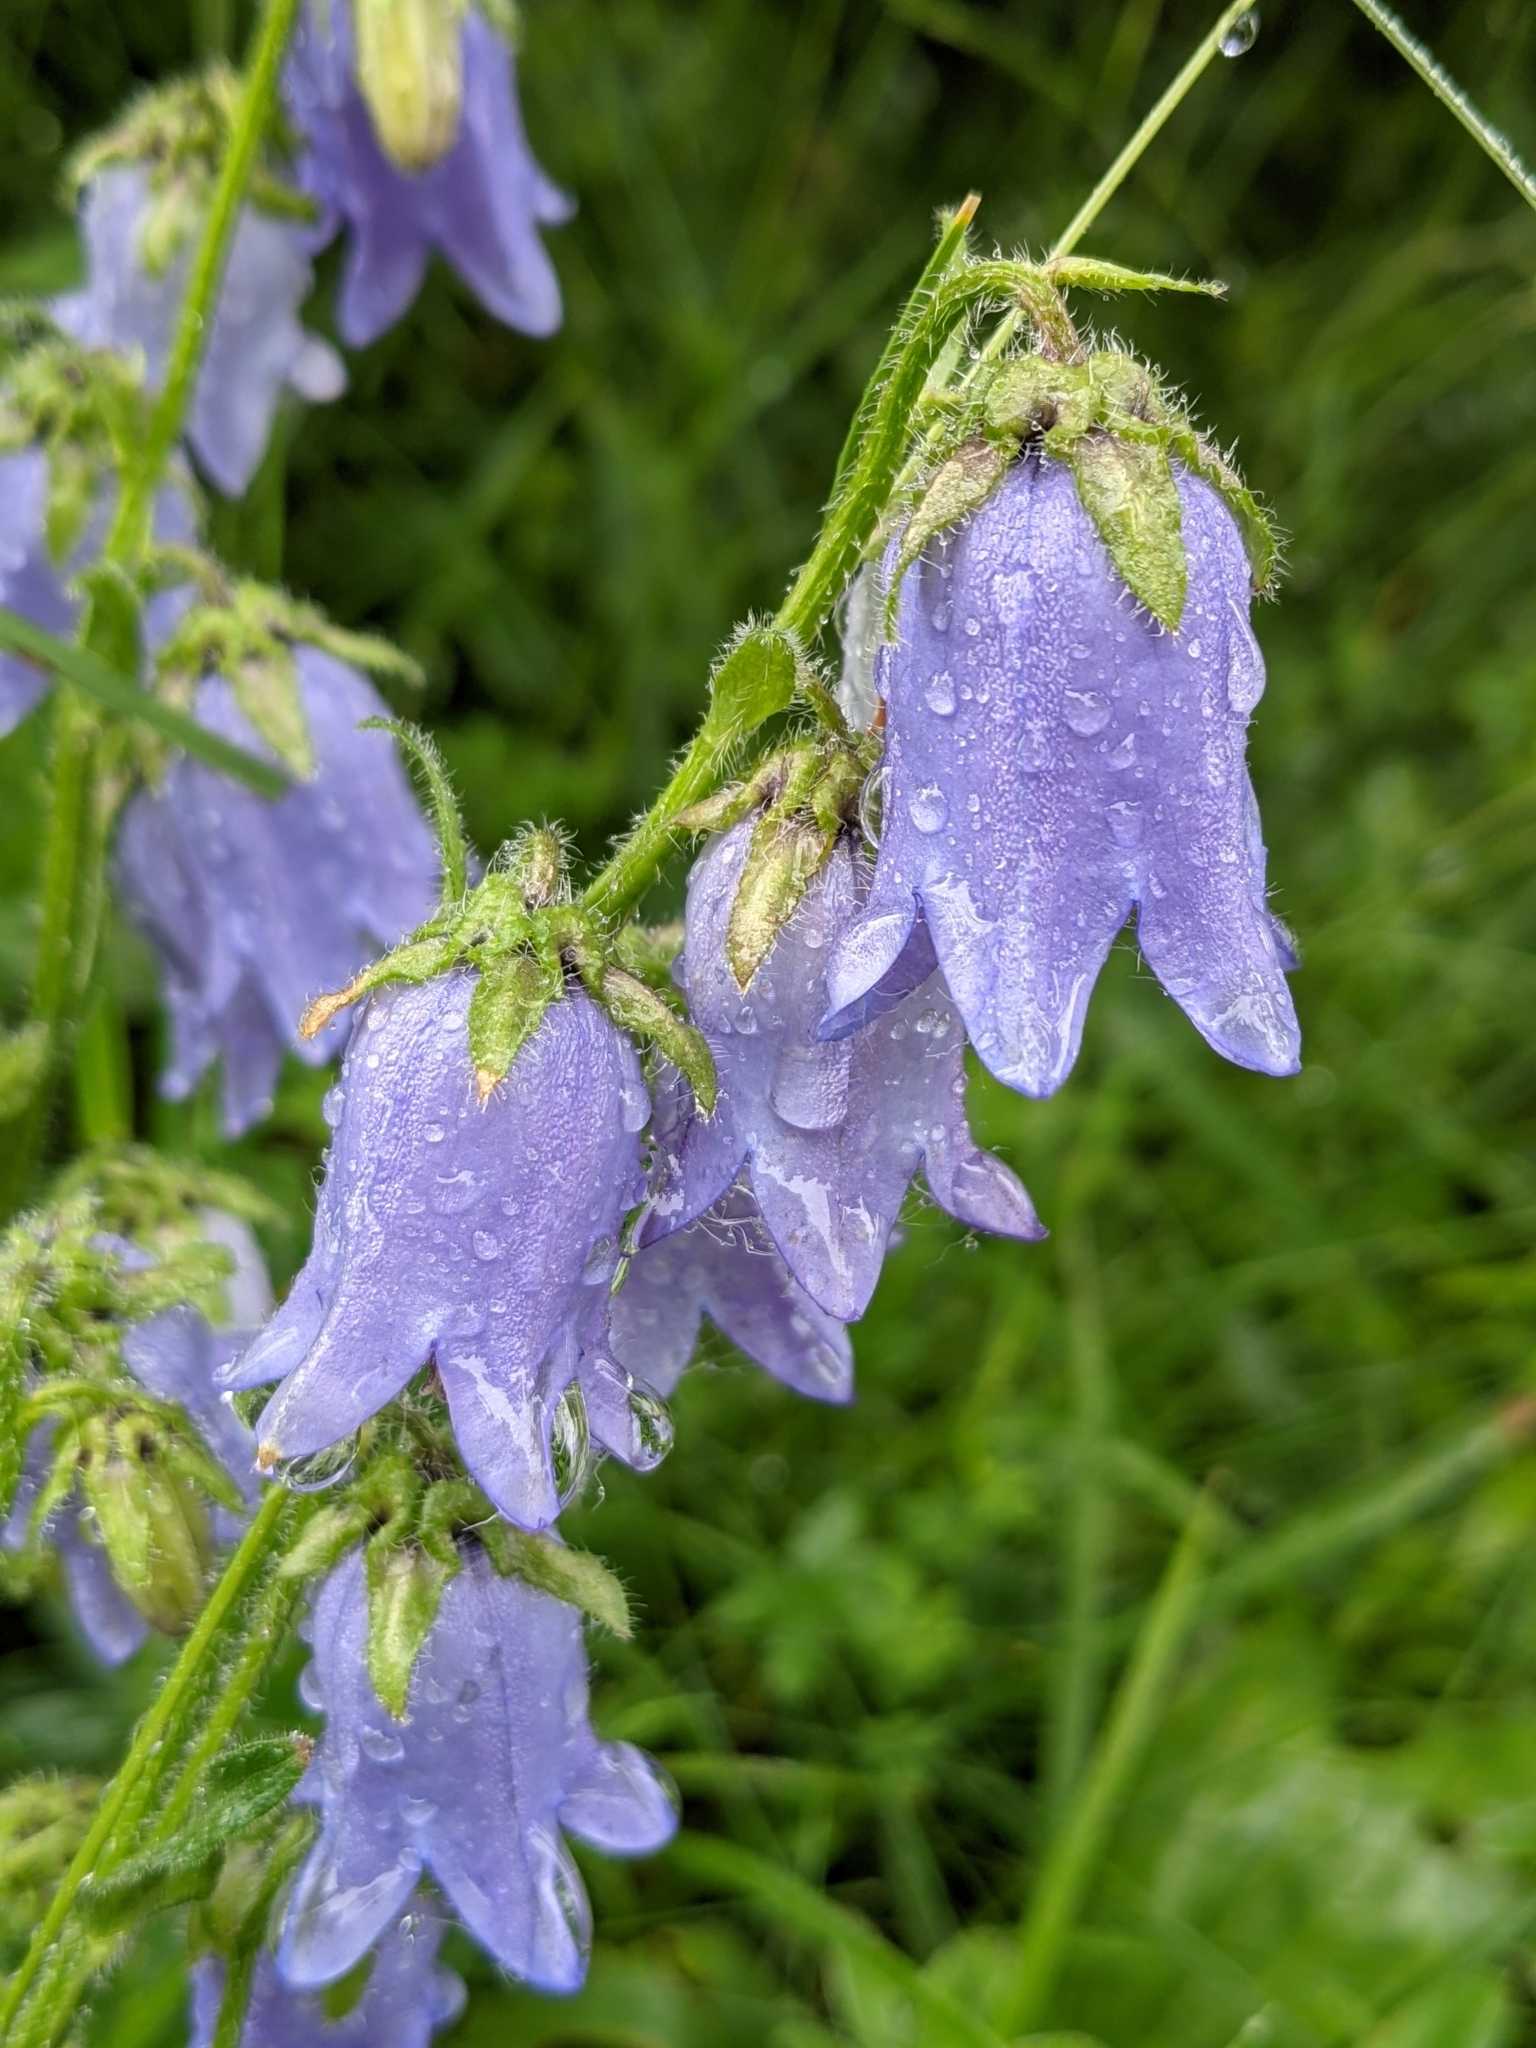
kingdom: Plantae
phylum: Tracheophyta
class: Magnoliopsida
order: Asterales
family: Campanulaceae
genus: Campanula
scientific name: Campanula barbata
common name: Bearded bellflower
